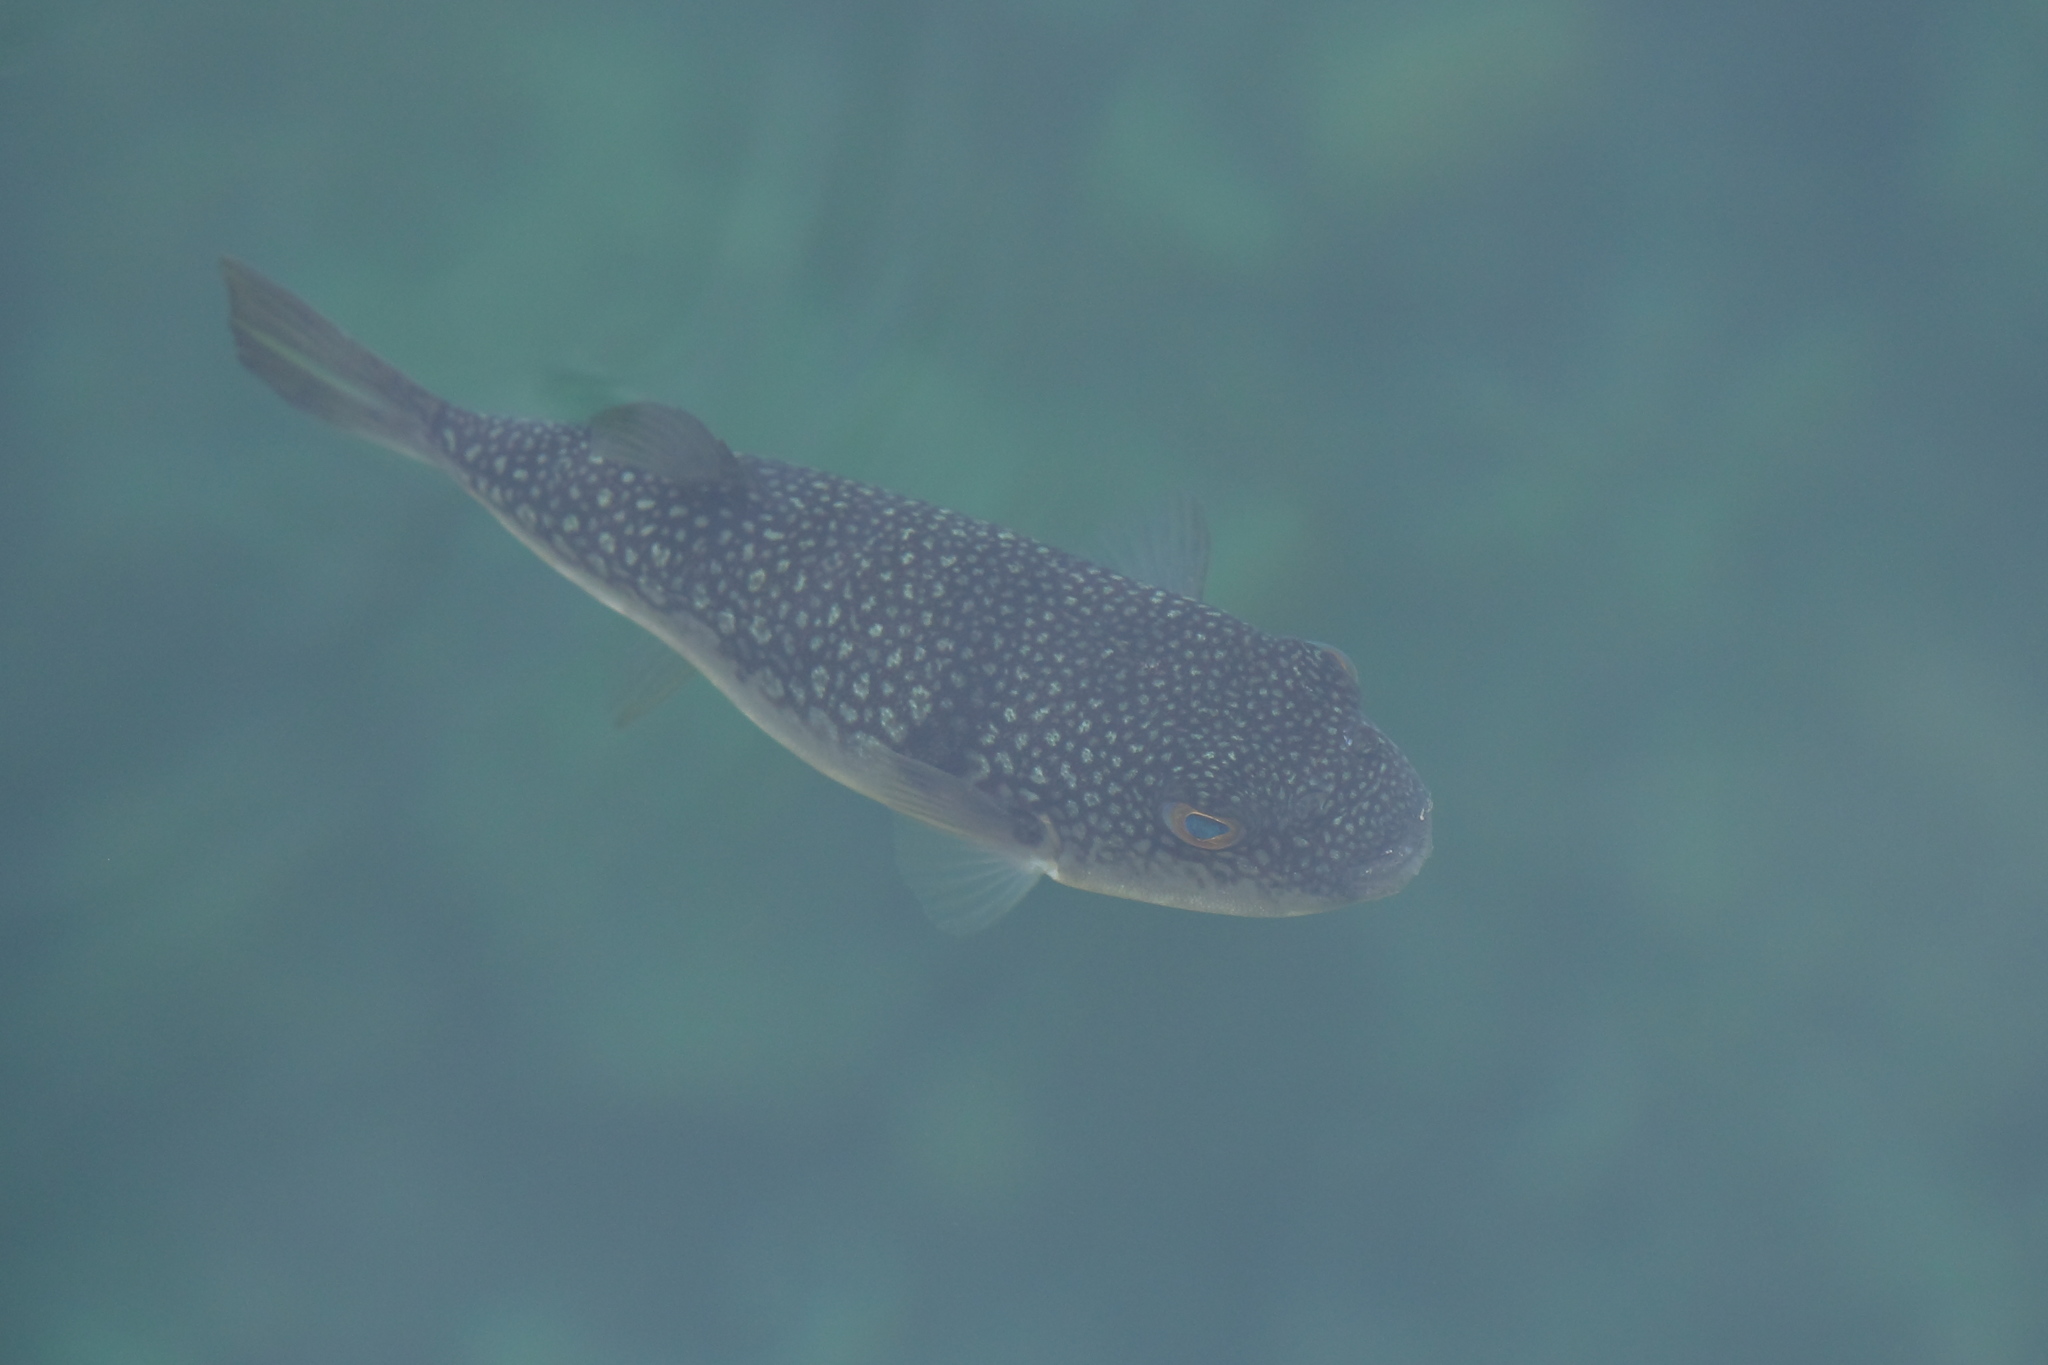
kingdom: Animalia
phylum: Chordata
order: Tetraodontiformes
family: Tetraodontidae
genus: Takifugu
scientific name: Takifugu alboplumbeus
